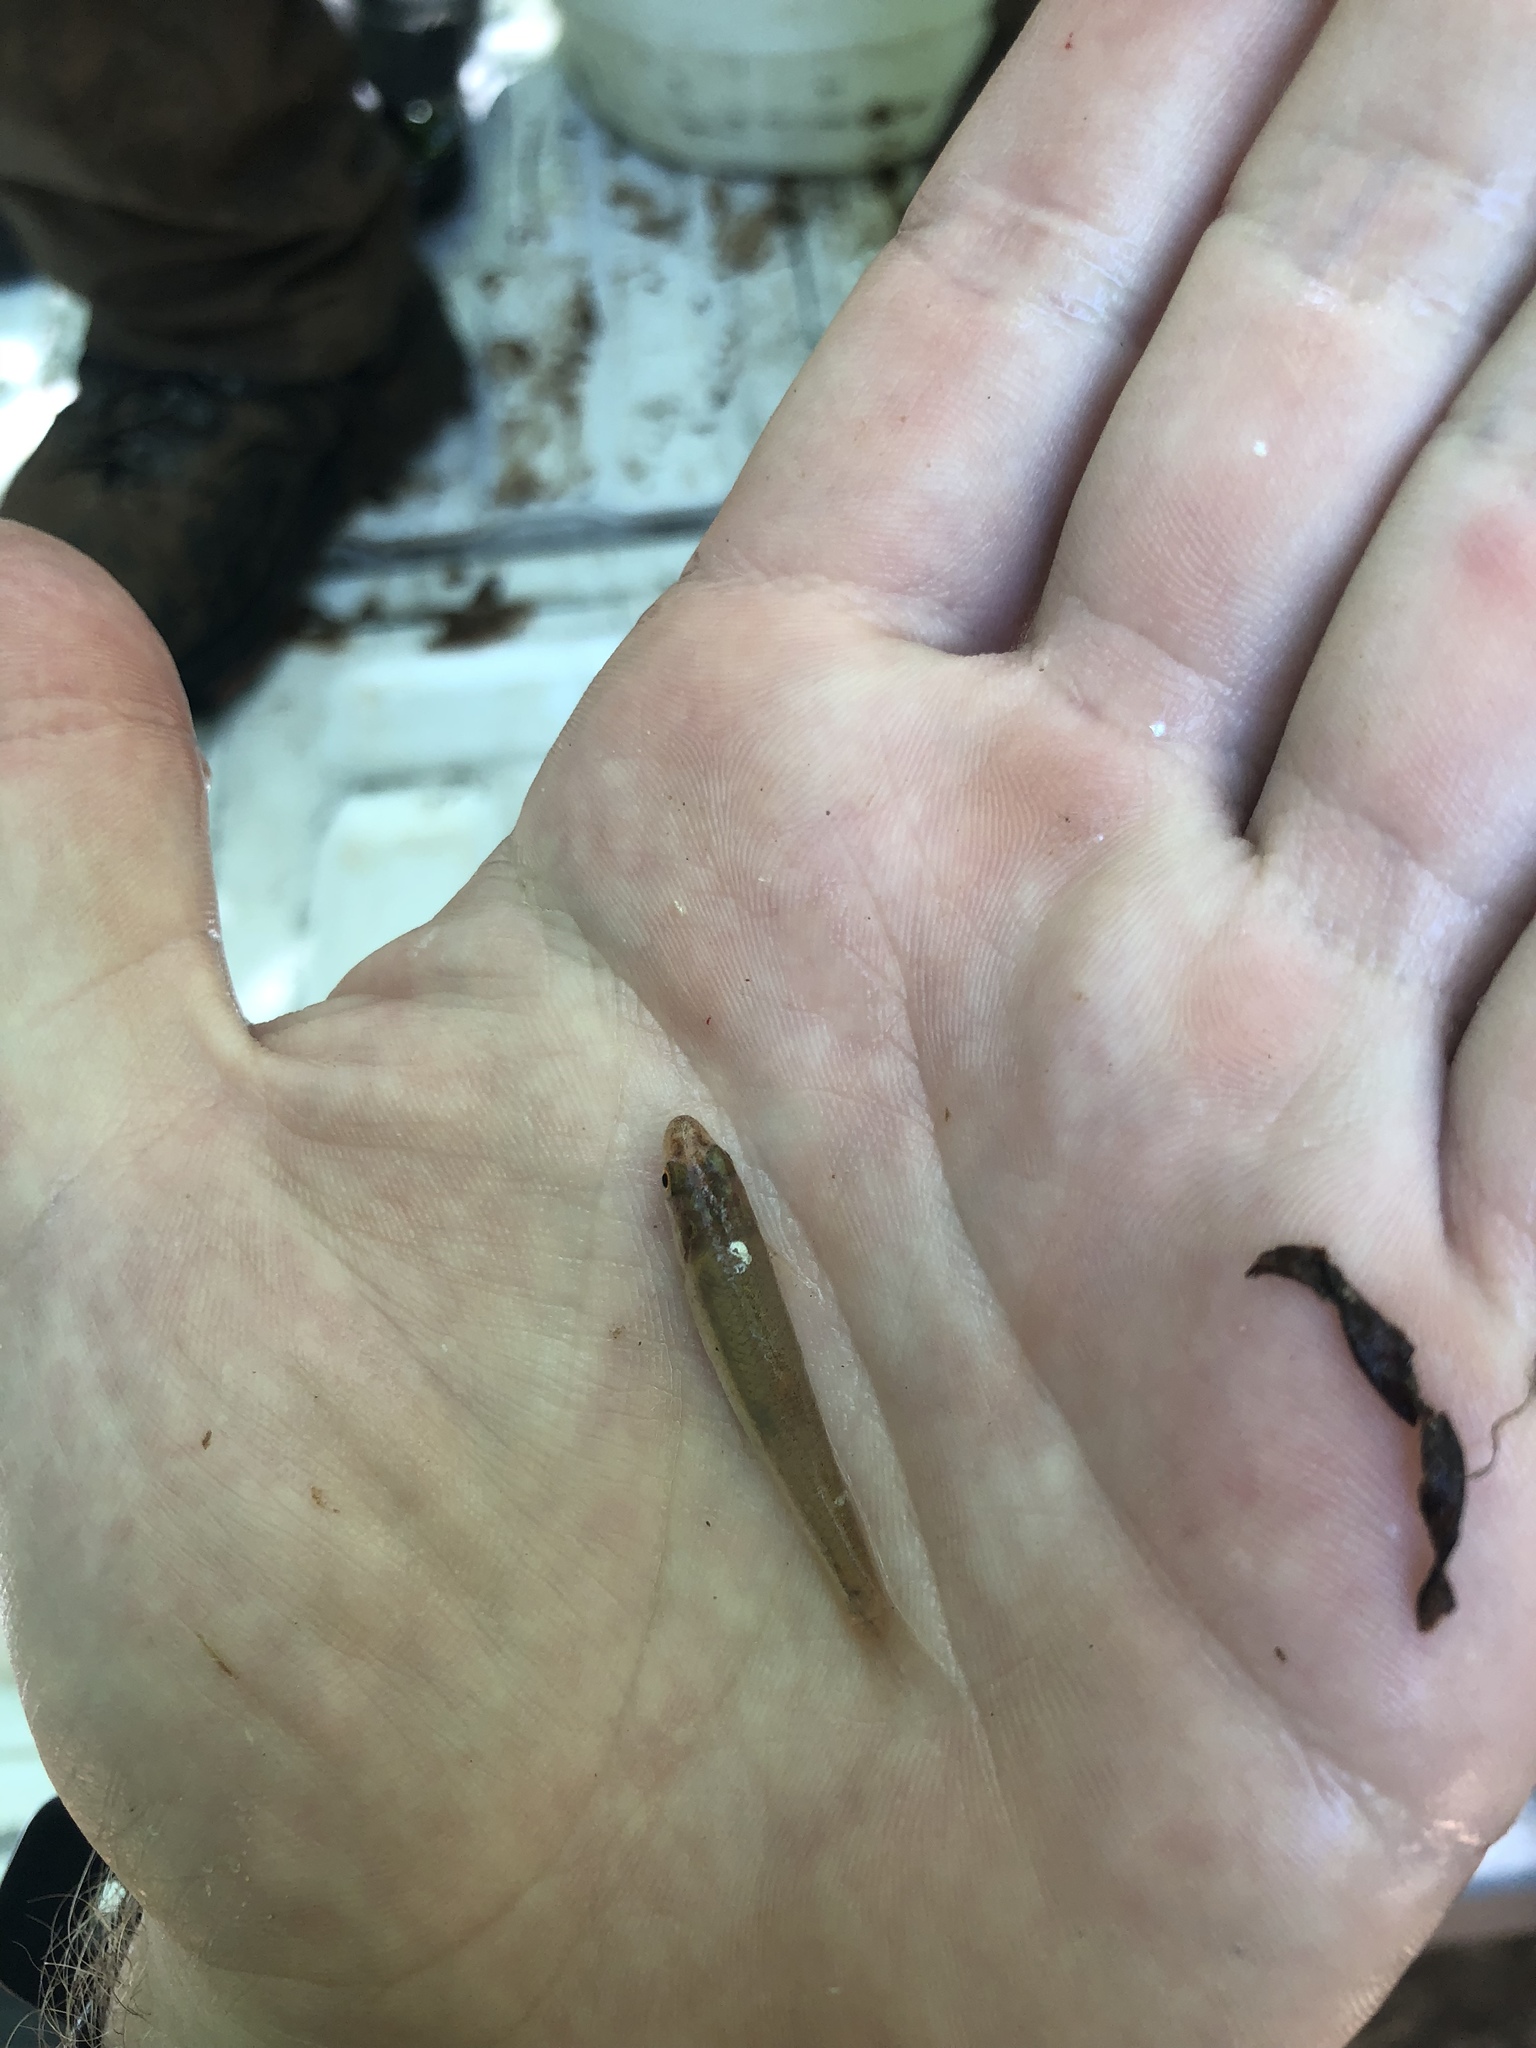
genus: Alburnops
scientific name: Alburnops
